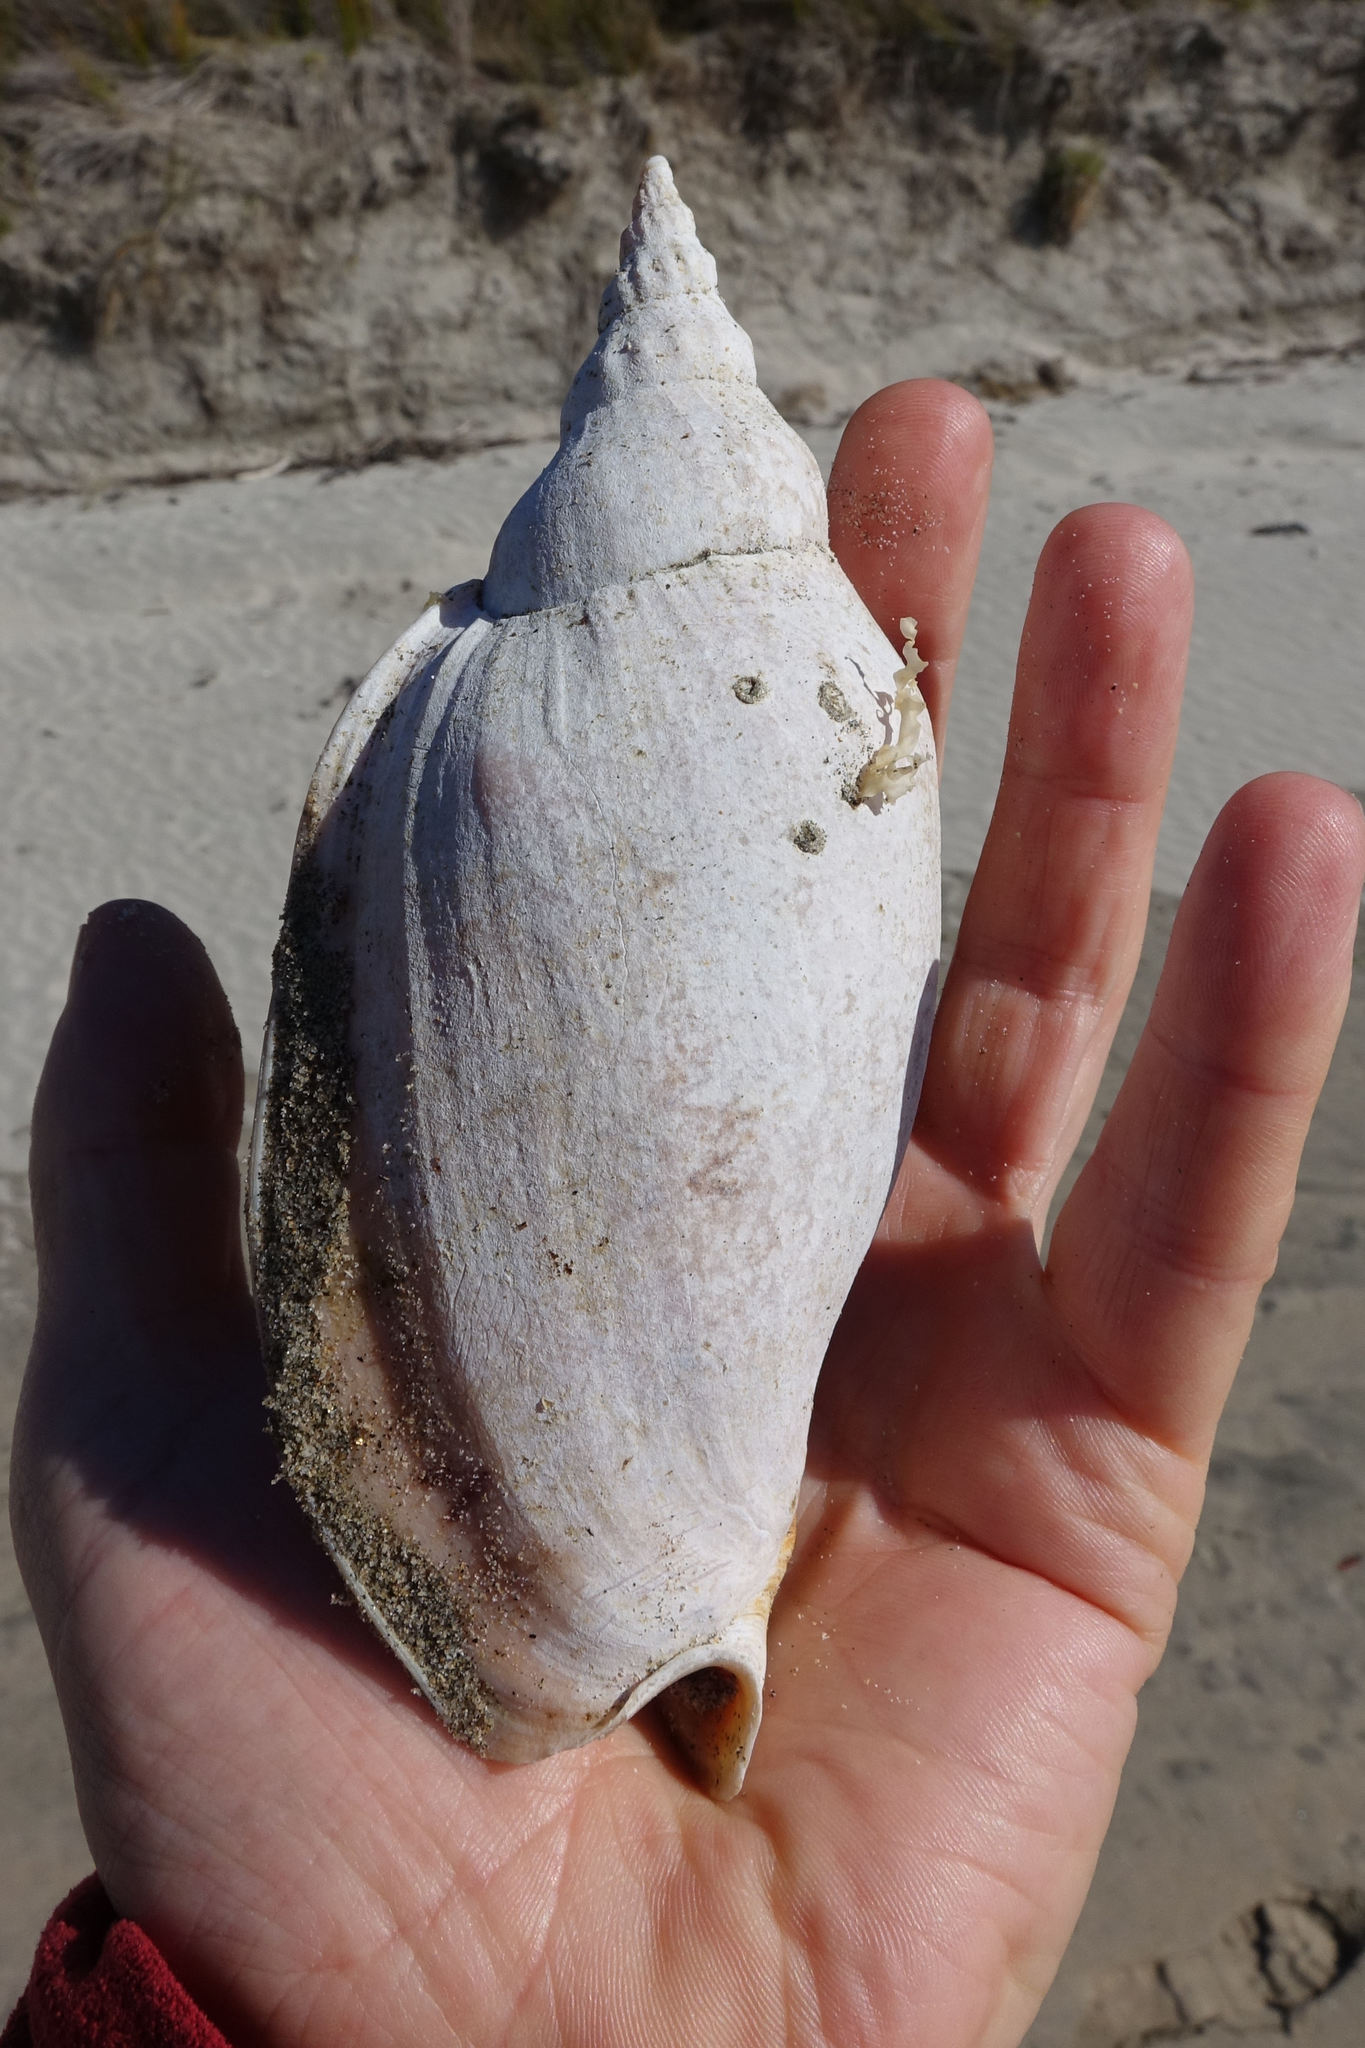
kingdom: Animalia
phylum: Mollusca
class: Gastropoda
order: Neogastropoda
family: Volutidae
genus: Alcithoe
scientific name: Alcithoe arabica
